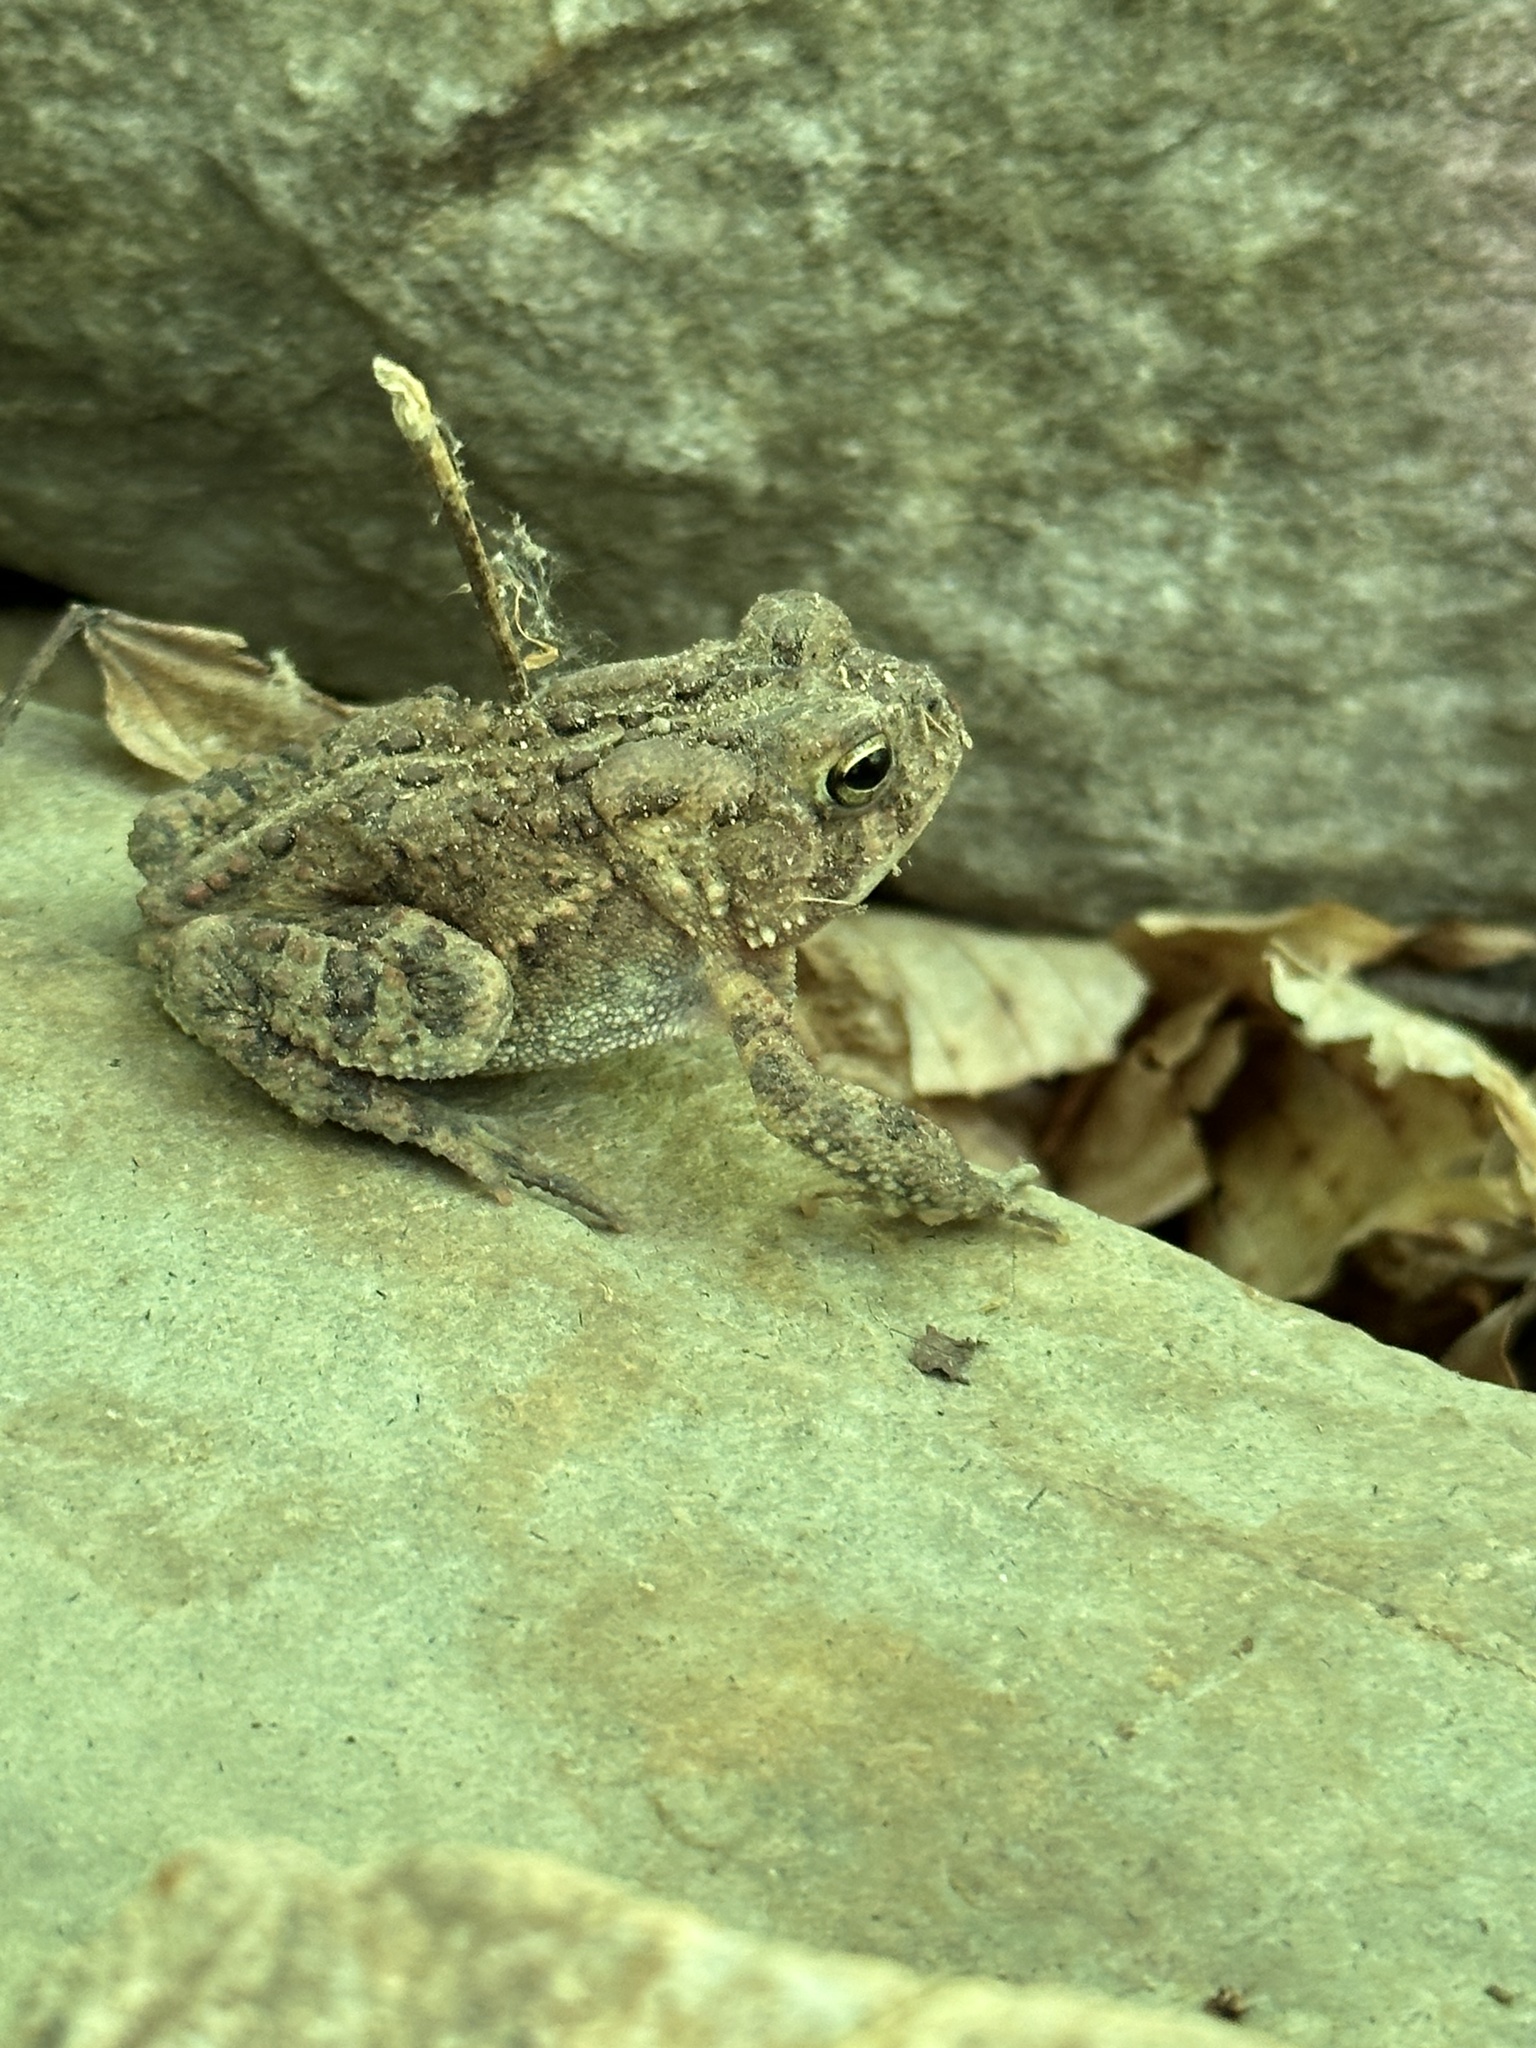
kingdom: Animalia
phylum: Chordata
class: Amphibia
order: Anura
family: Bufonidae
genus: Anaxyrus
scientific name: Anaxyrus americanus
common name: American toad
